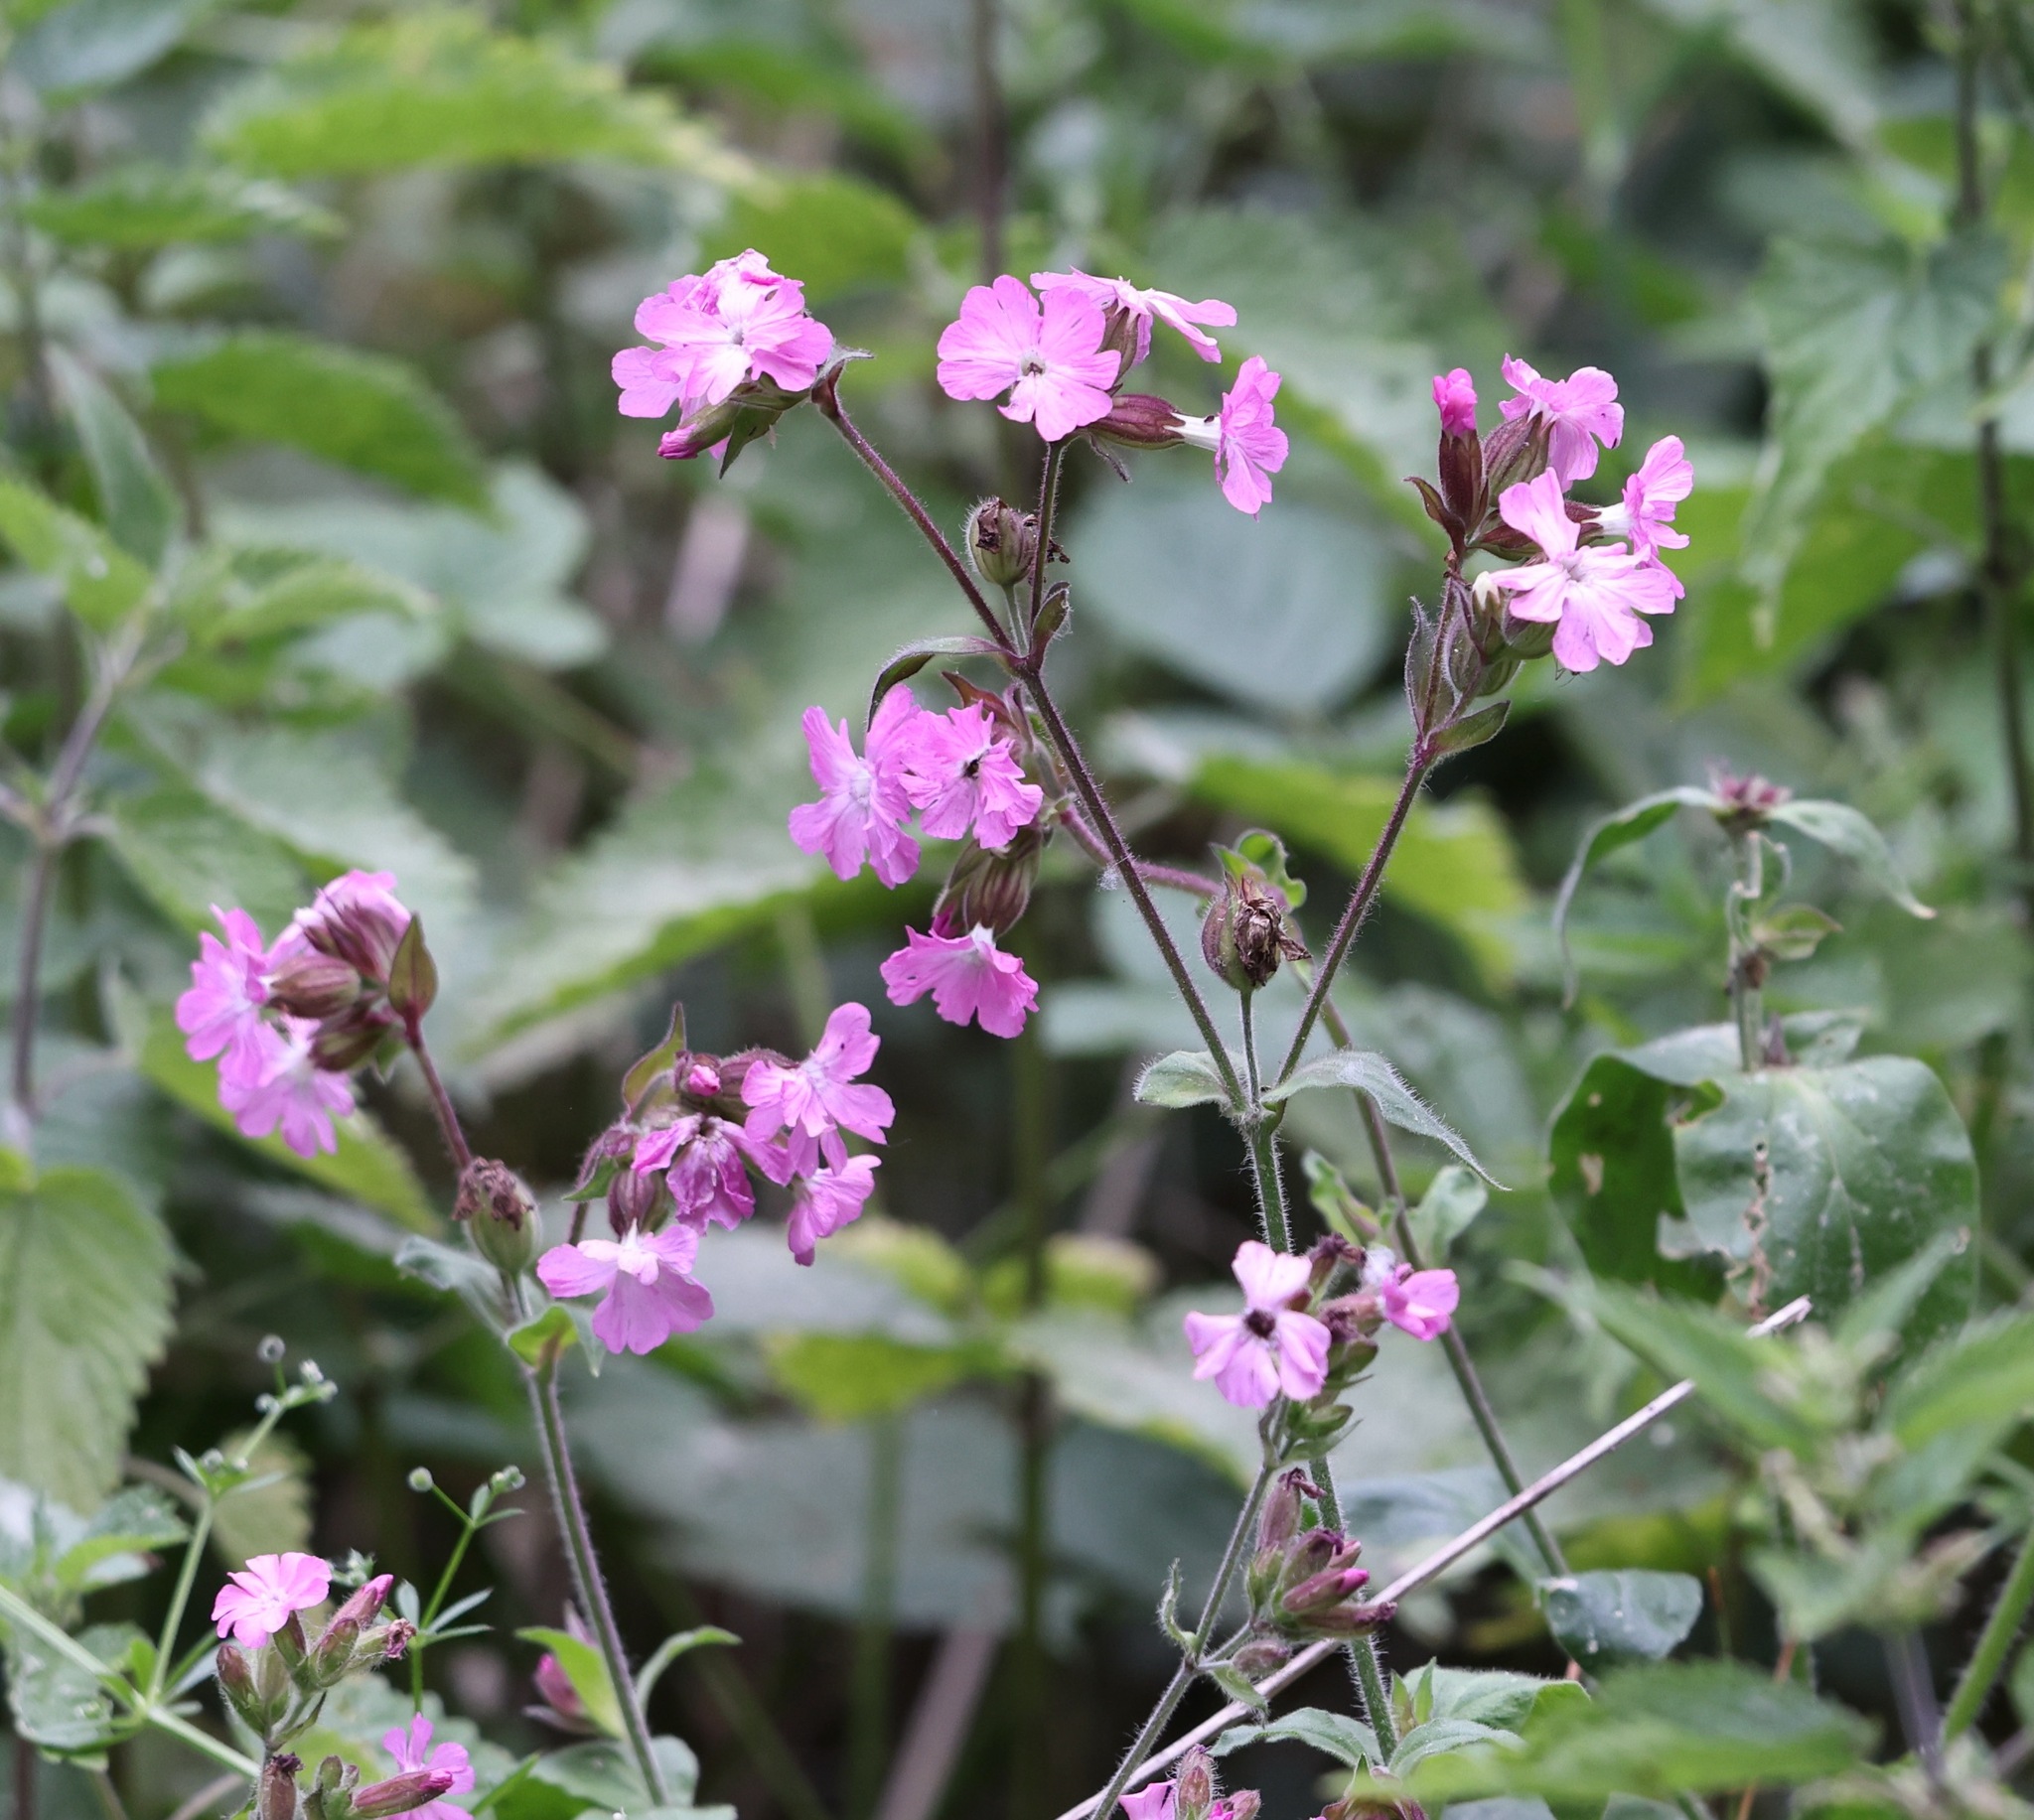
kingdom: Plantae
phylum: Tracheophyta
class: Magnoliopsida
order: Caryophyllales
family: Caryophyllaceae
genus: Silene
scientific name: Silene dioica
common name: Red campion
